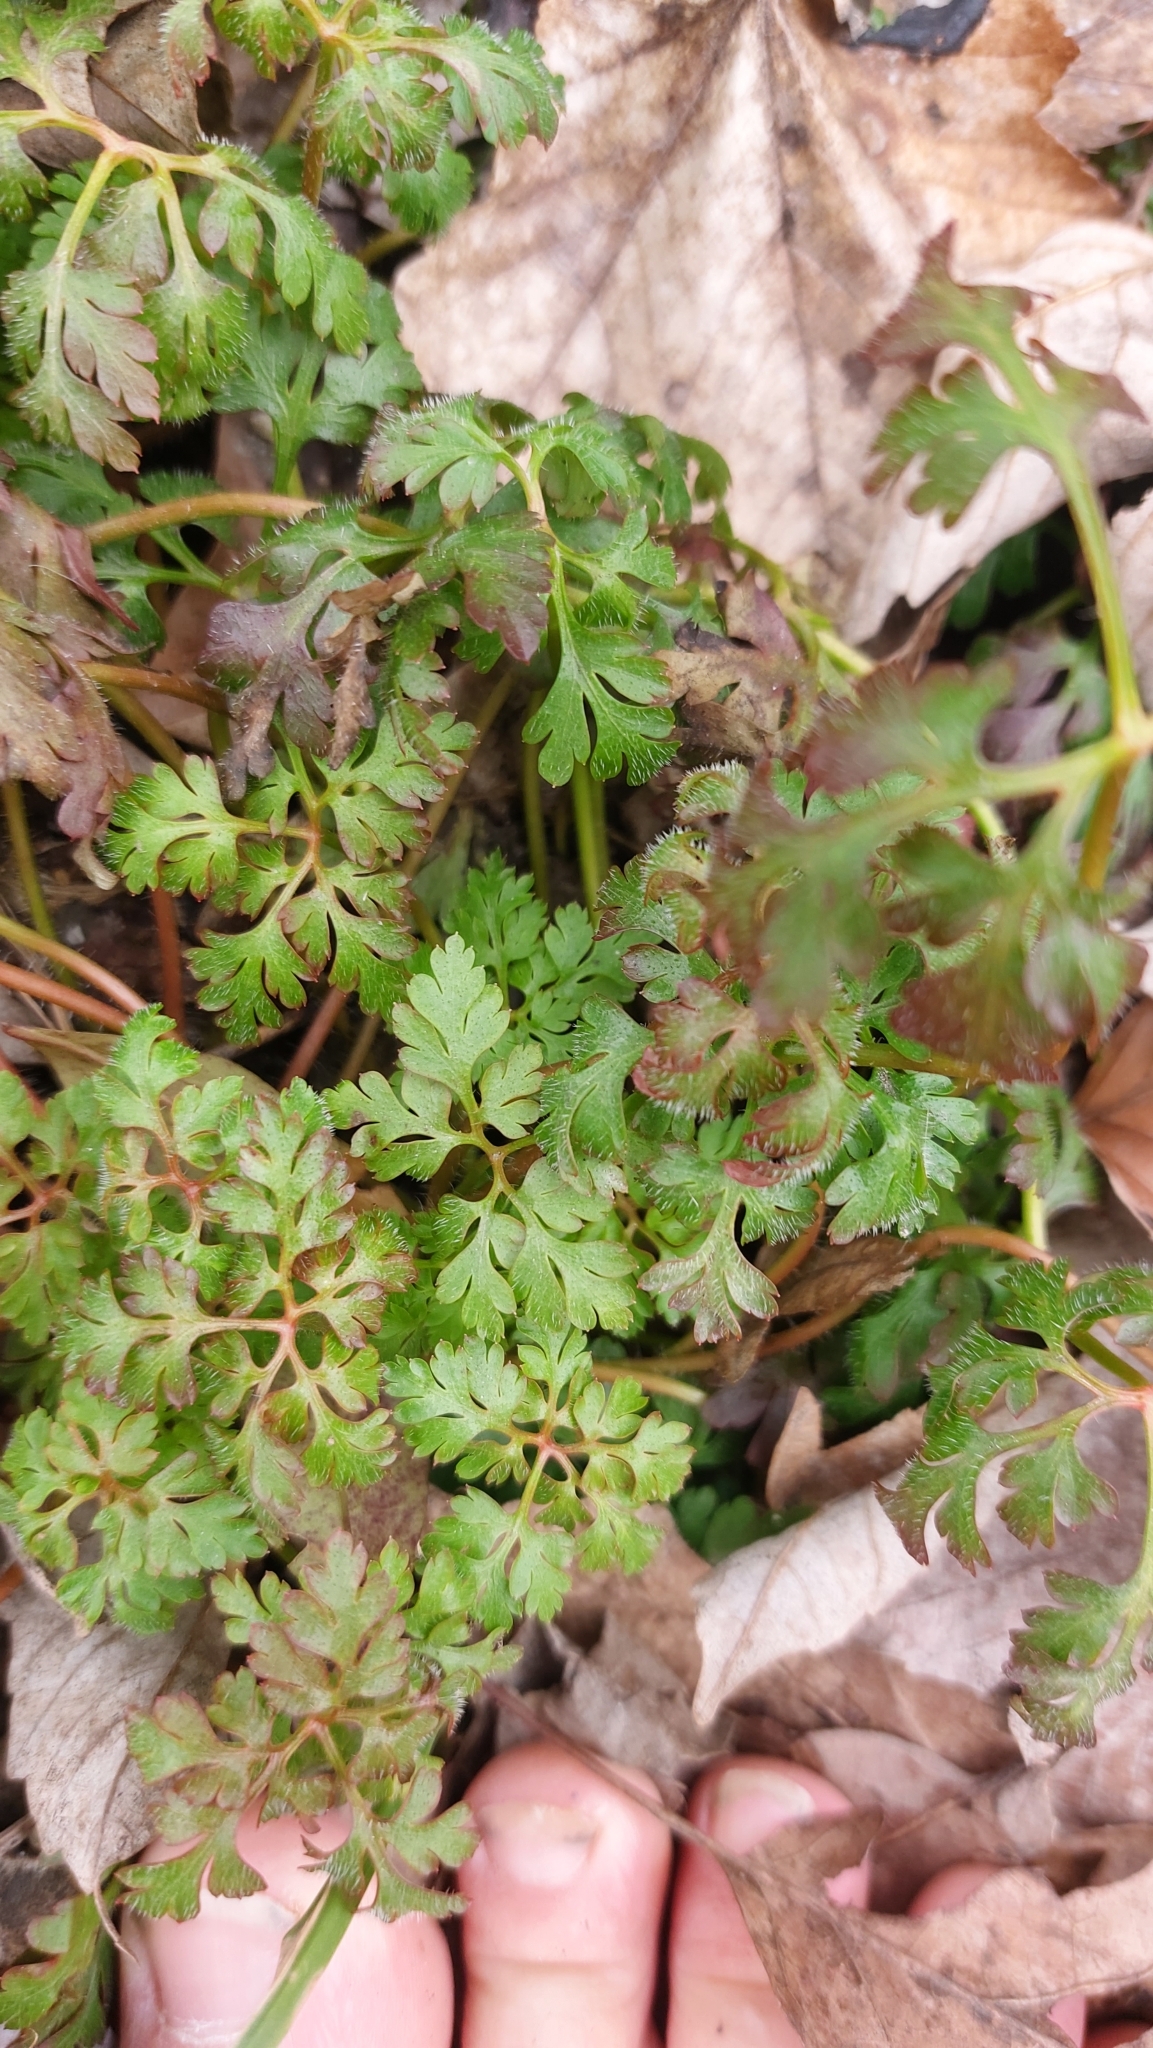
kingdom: Plantae
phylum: Tracheophyta
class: Magnoliopsida
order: Geraniales
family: Geraniaceae
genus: Geranium
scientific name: Geranium robertianum
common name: Herb-robert
